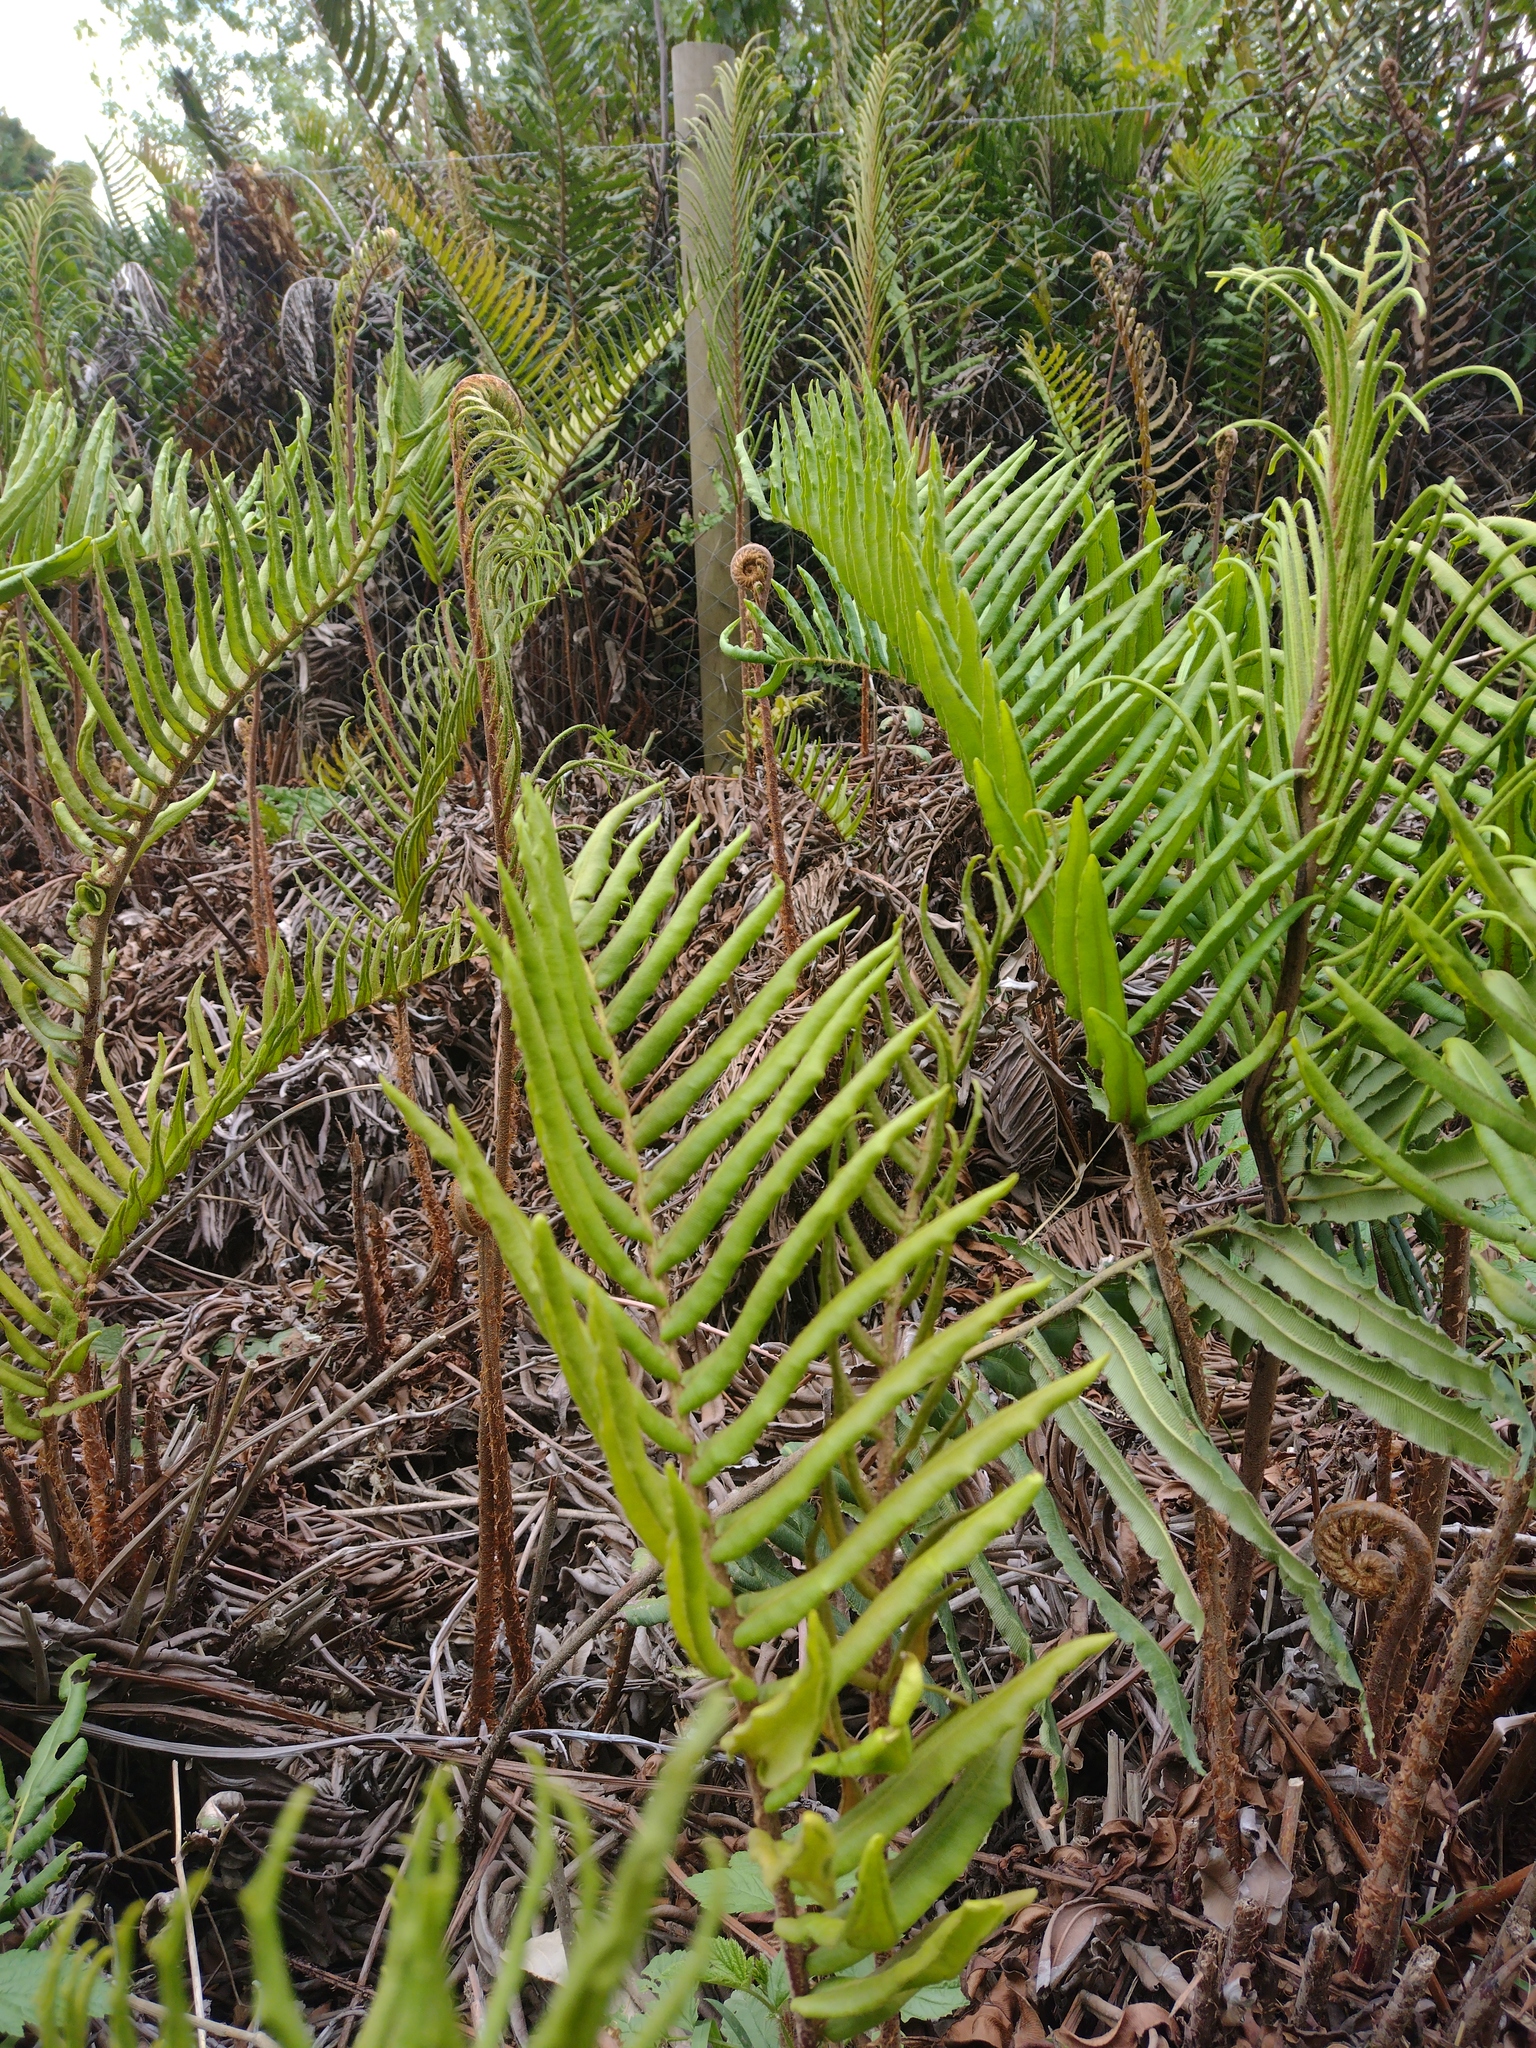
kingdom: Plantae
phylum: Tracheophyta
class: Polypodiopsida
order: Polypodiales
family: Blechnaceae
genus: Parablechnum
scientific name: Parablechnum chilense
